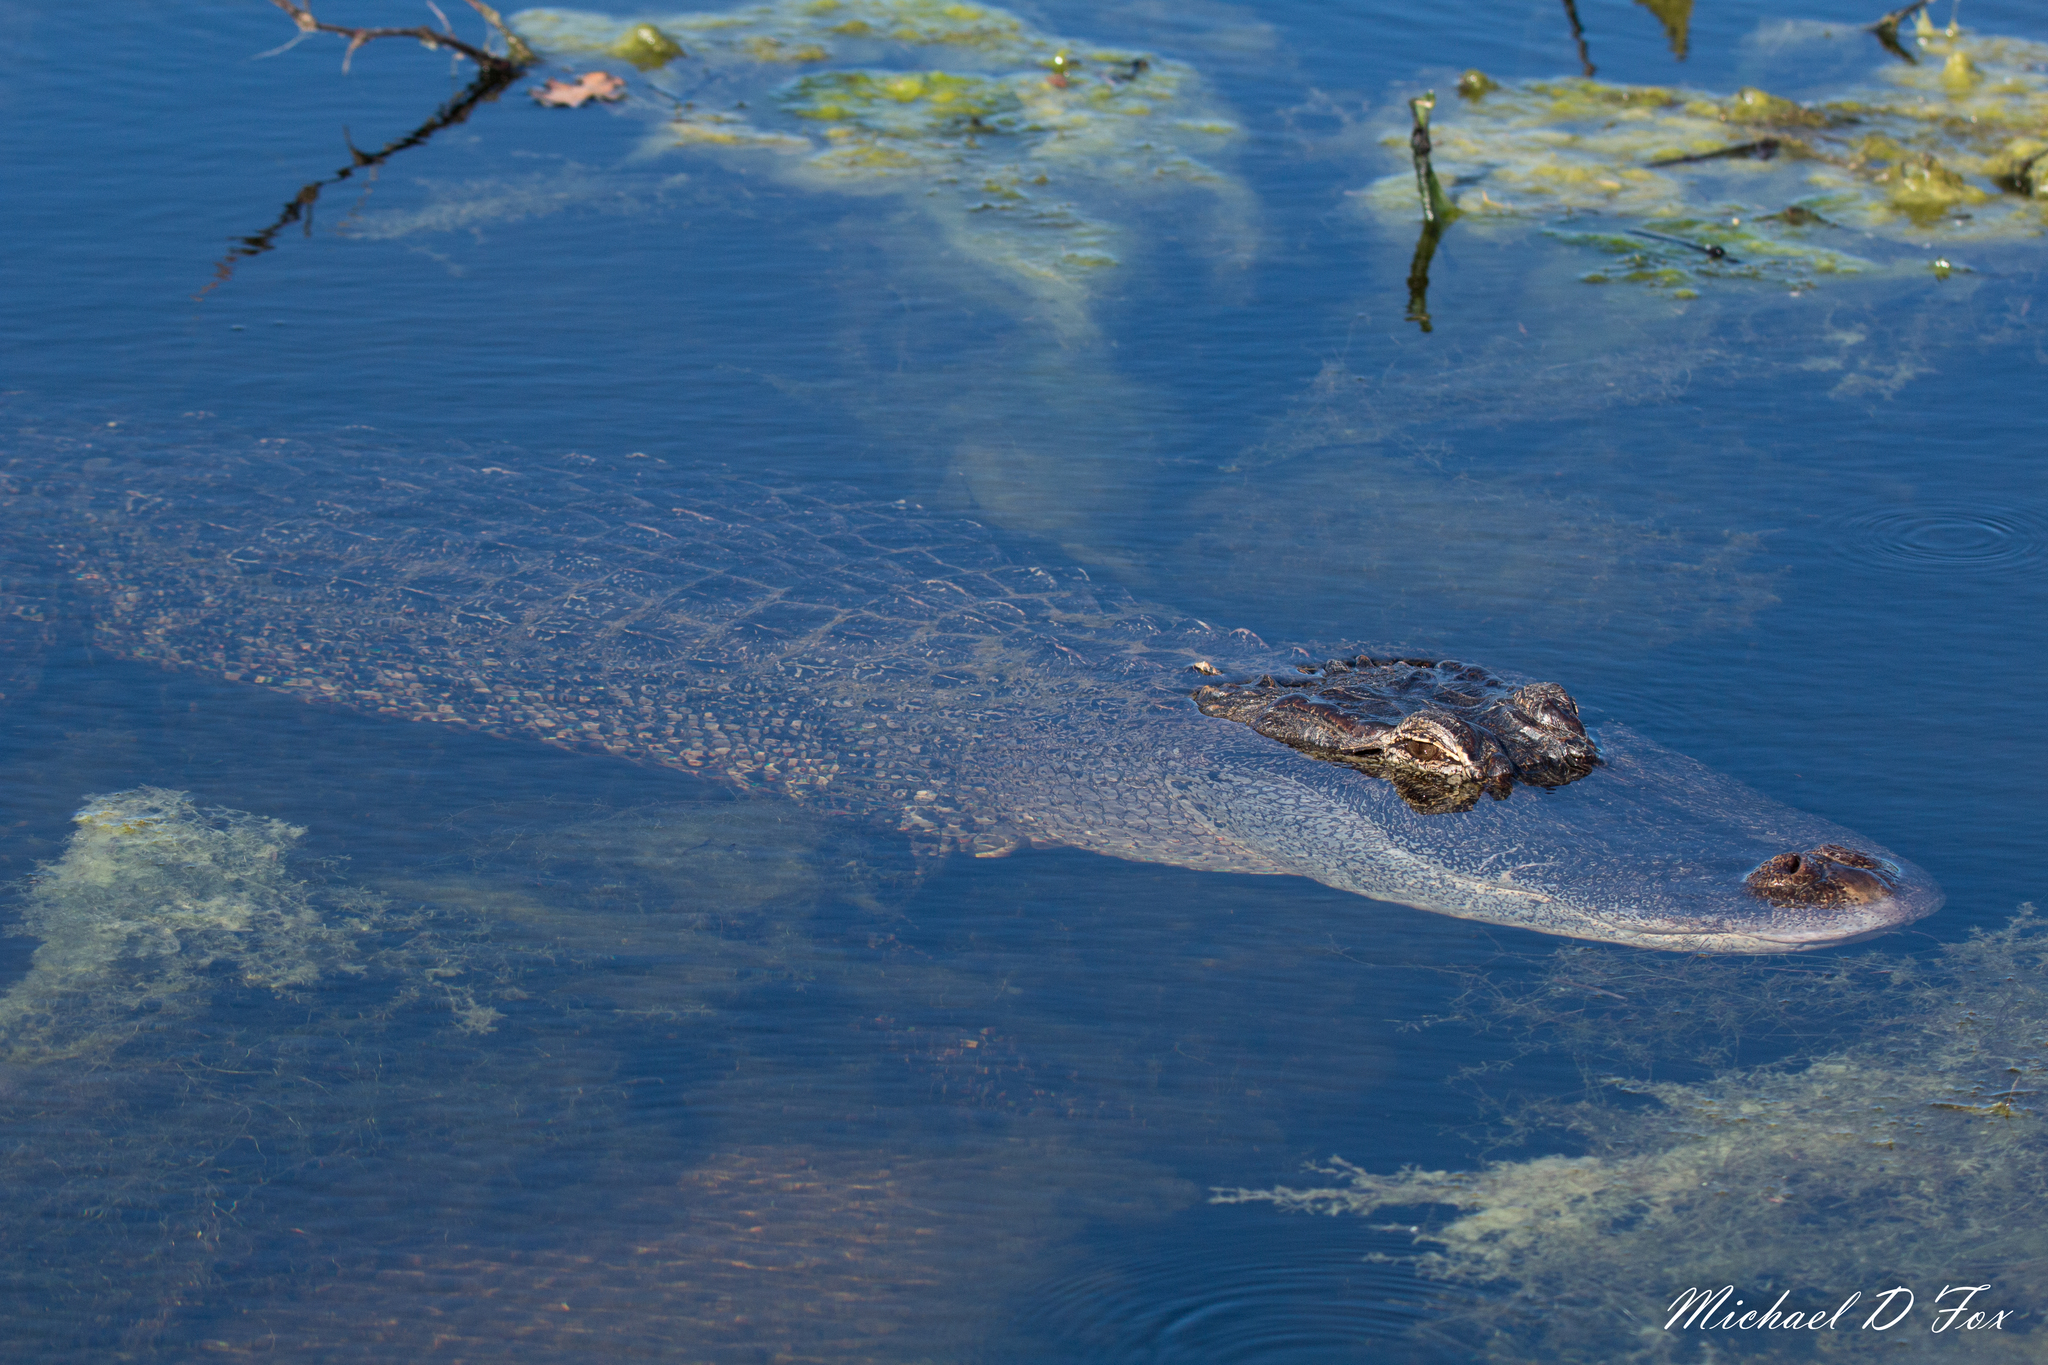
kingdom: Animalia
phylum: Chordata
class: Crocodylia
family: Alligatoridae
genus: Alligator
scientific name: Alligator mississippiensis
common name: American alligator
